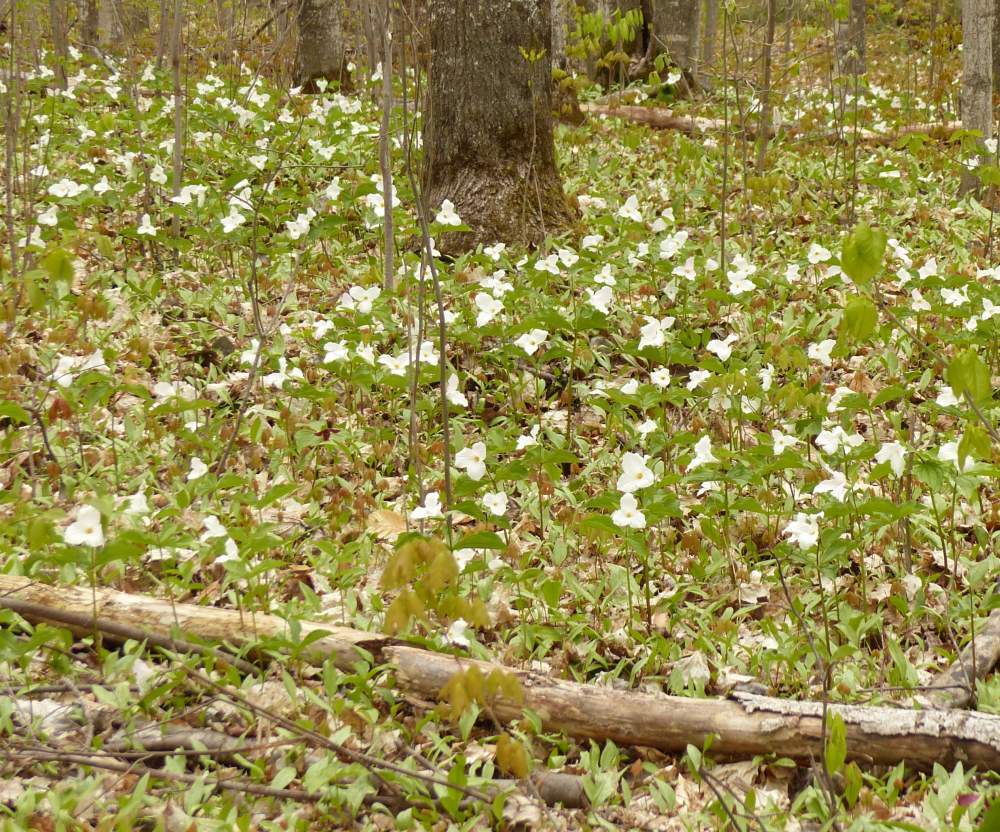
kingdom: Plantae
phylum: Tracheophyta
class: Liliopsida
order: Liliales
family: Melanthiaceae
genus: Trillium
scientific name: Trillium grandiflorum
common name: Great white trillium
